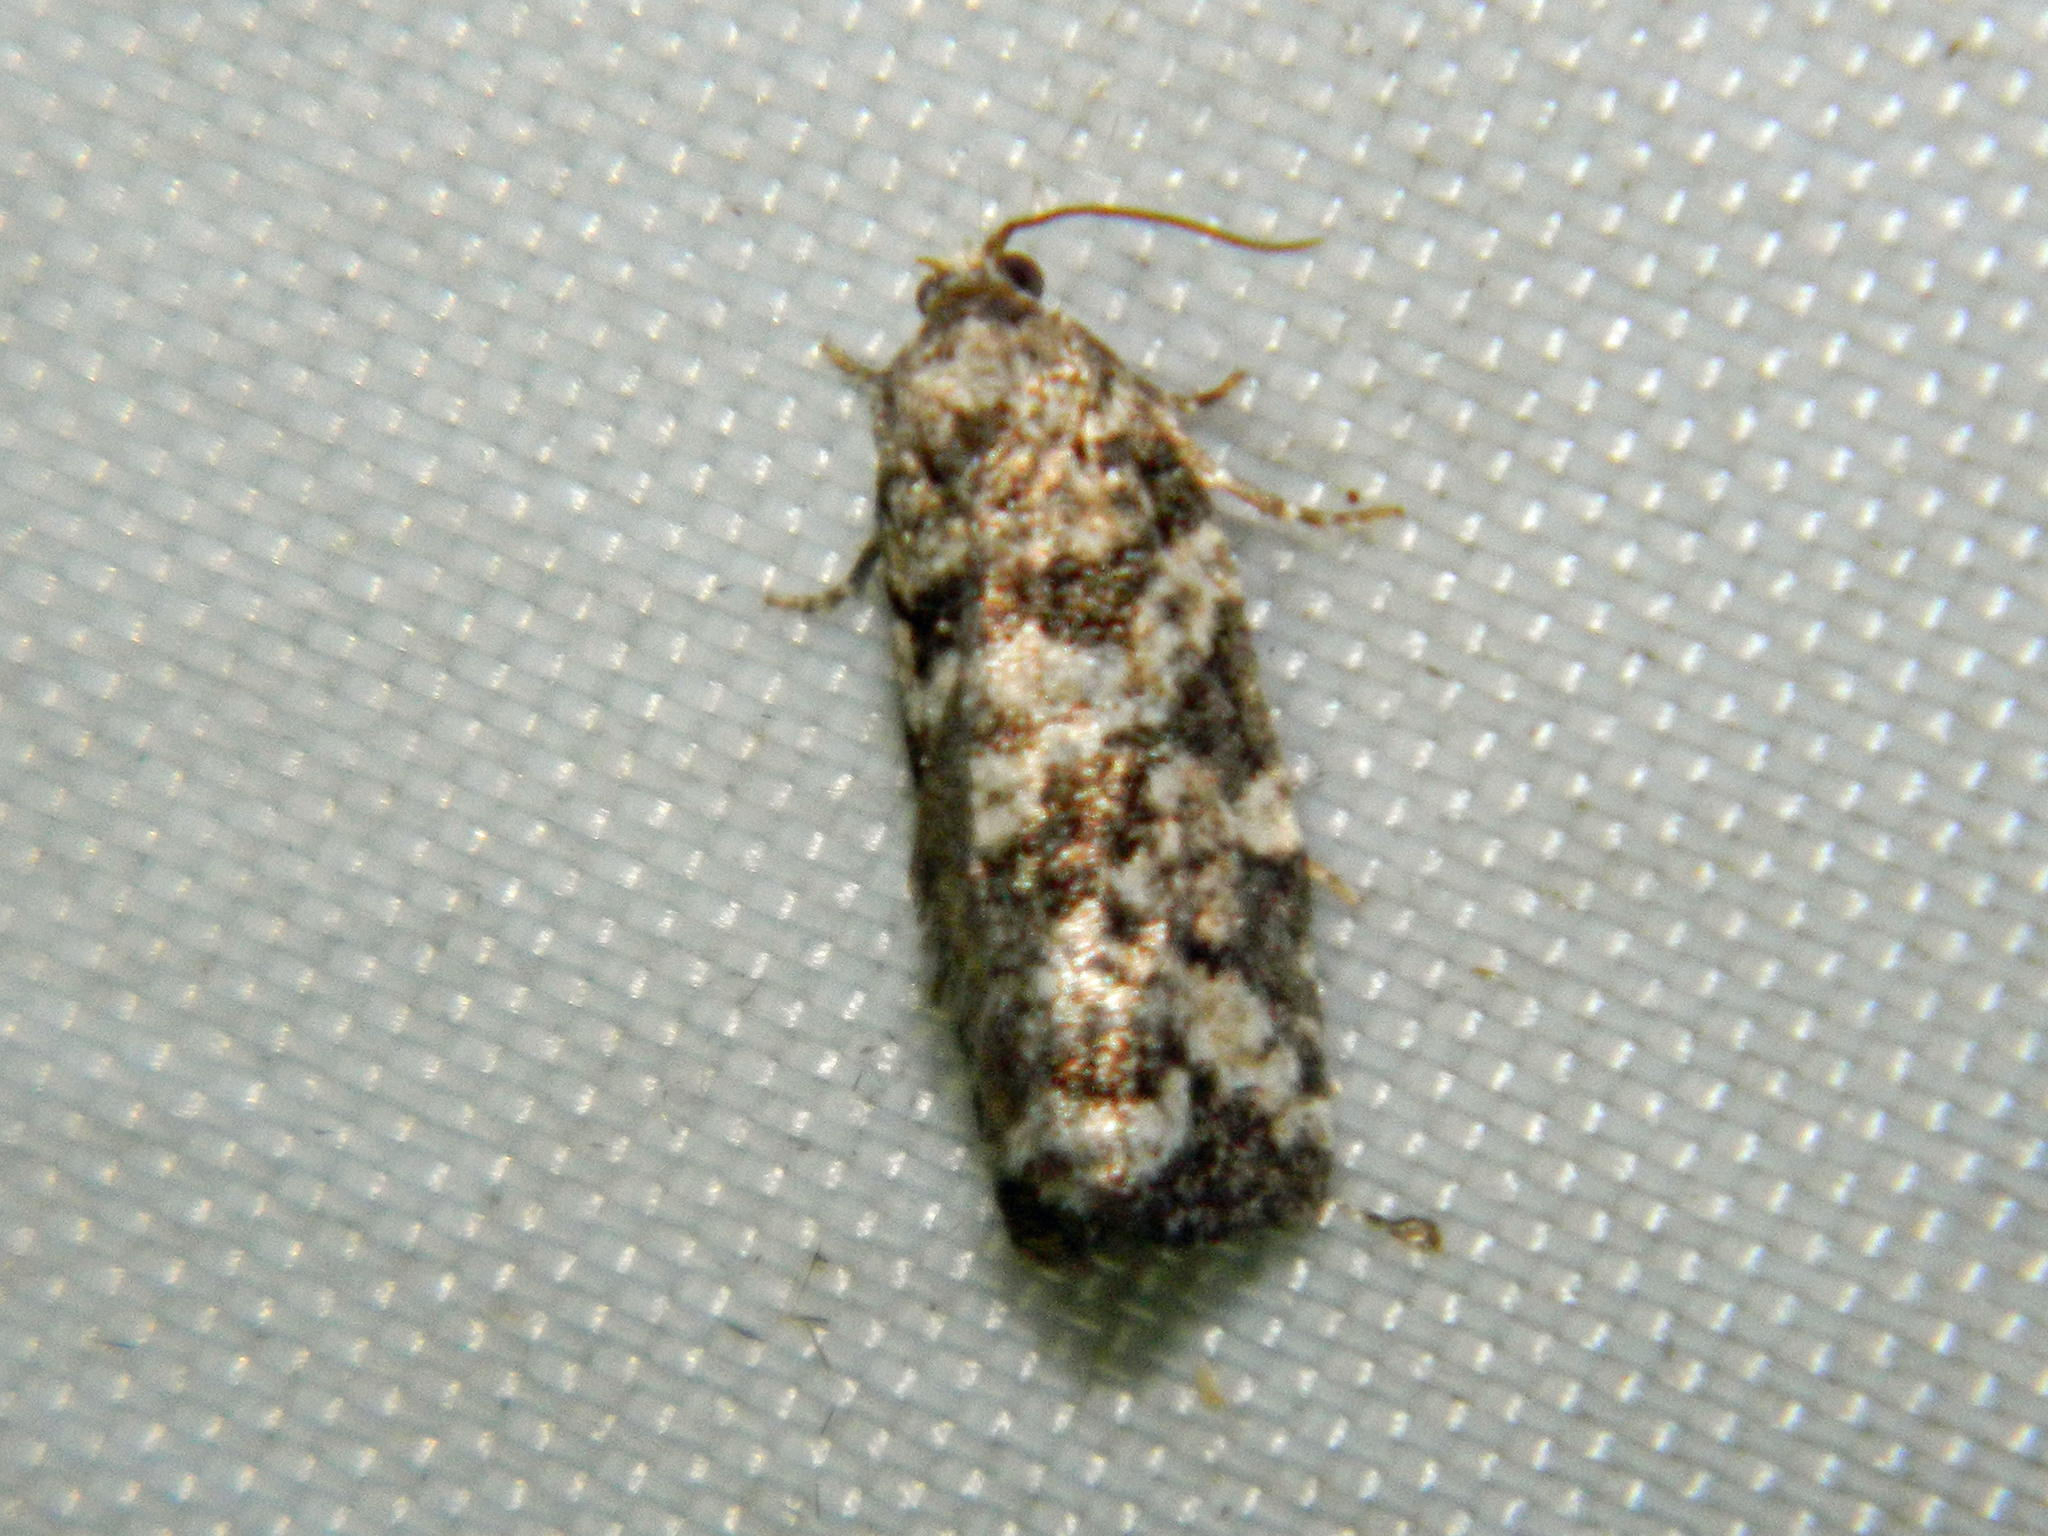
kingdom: Animalia
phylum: Arthropoda
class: Insecta
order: Lepidoptera
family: Tortricidae
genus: Archips
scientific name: Archips packardiana
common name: Spring spruce needle moth
